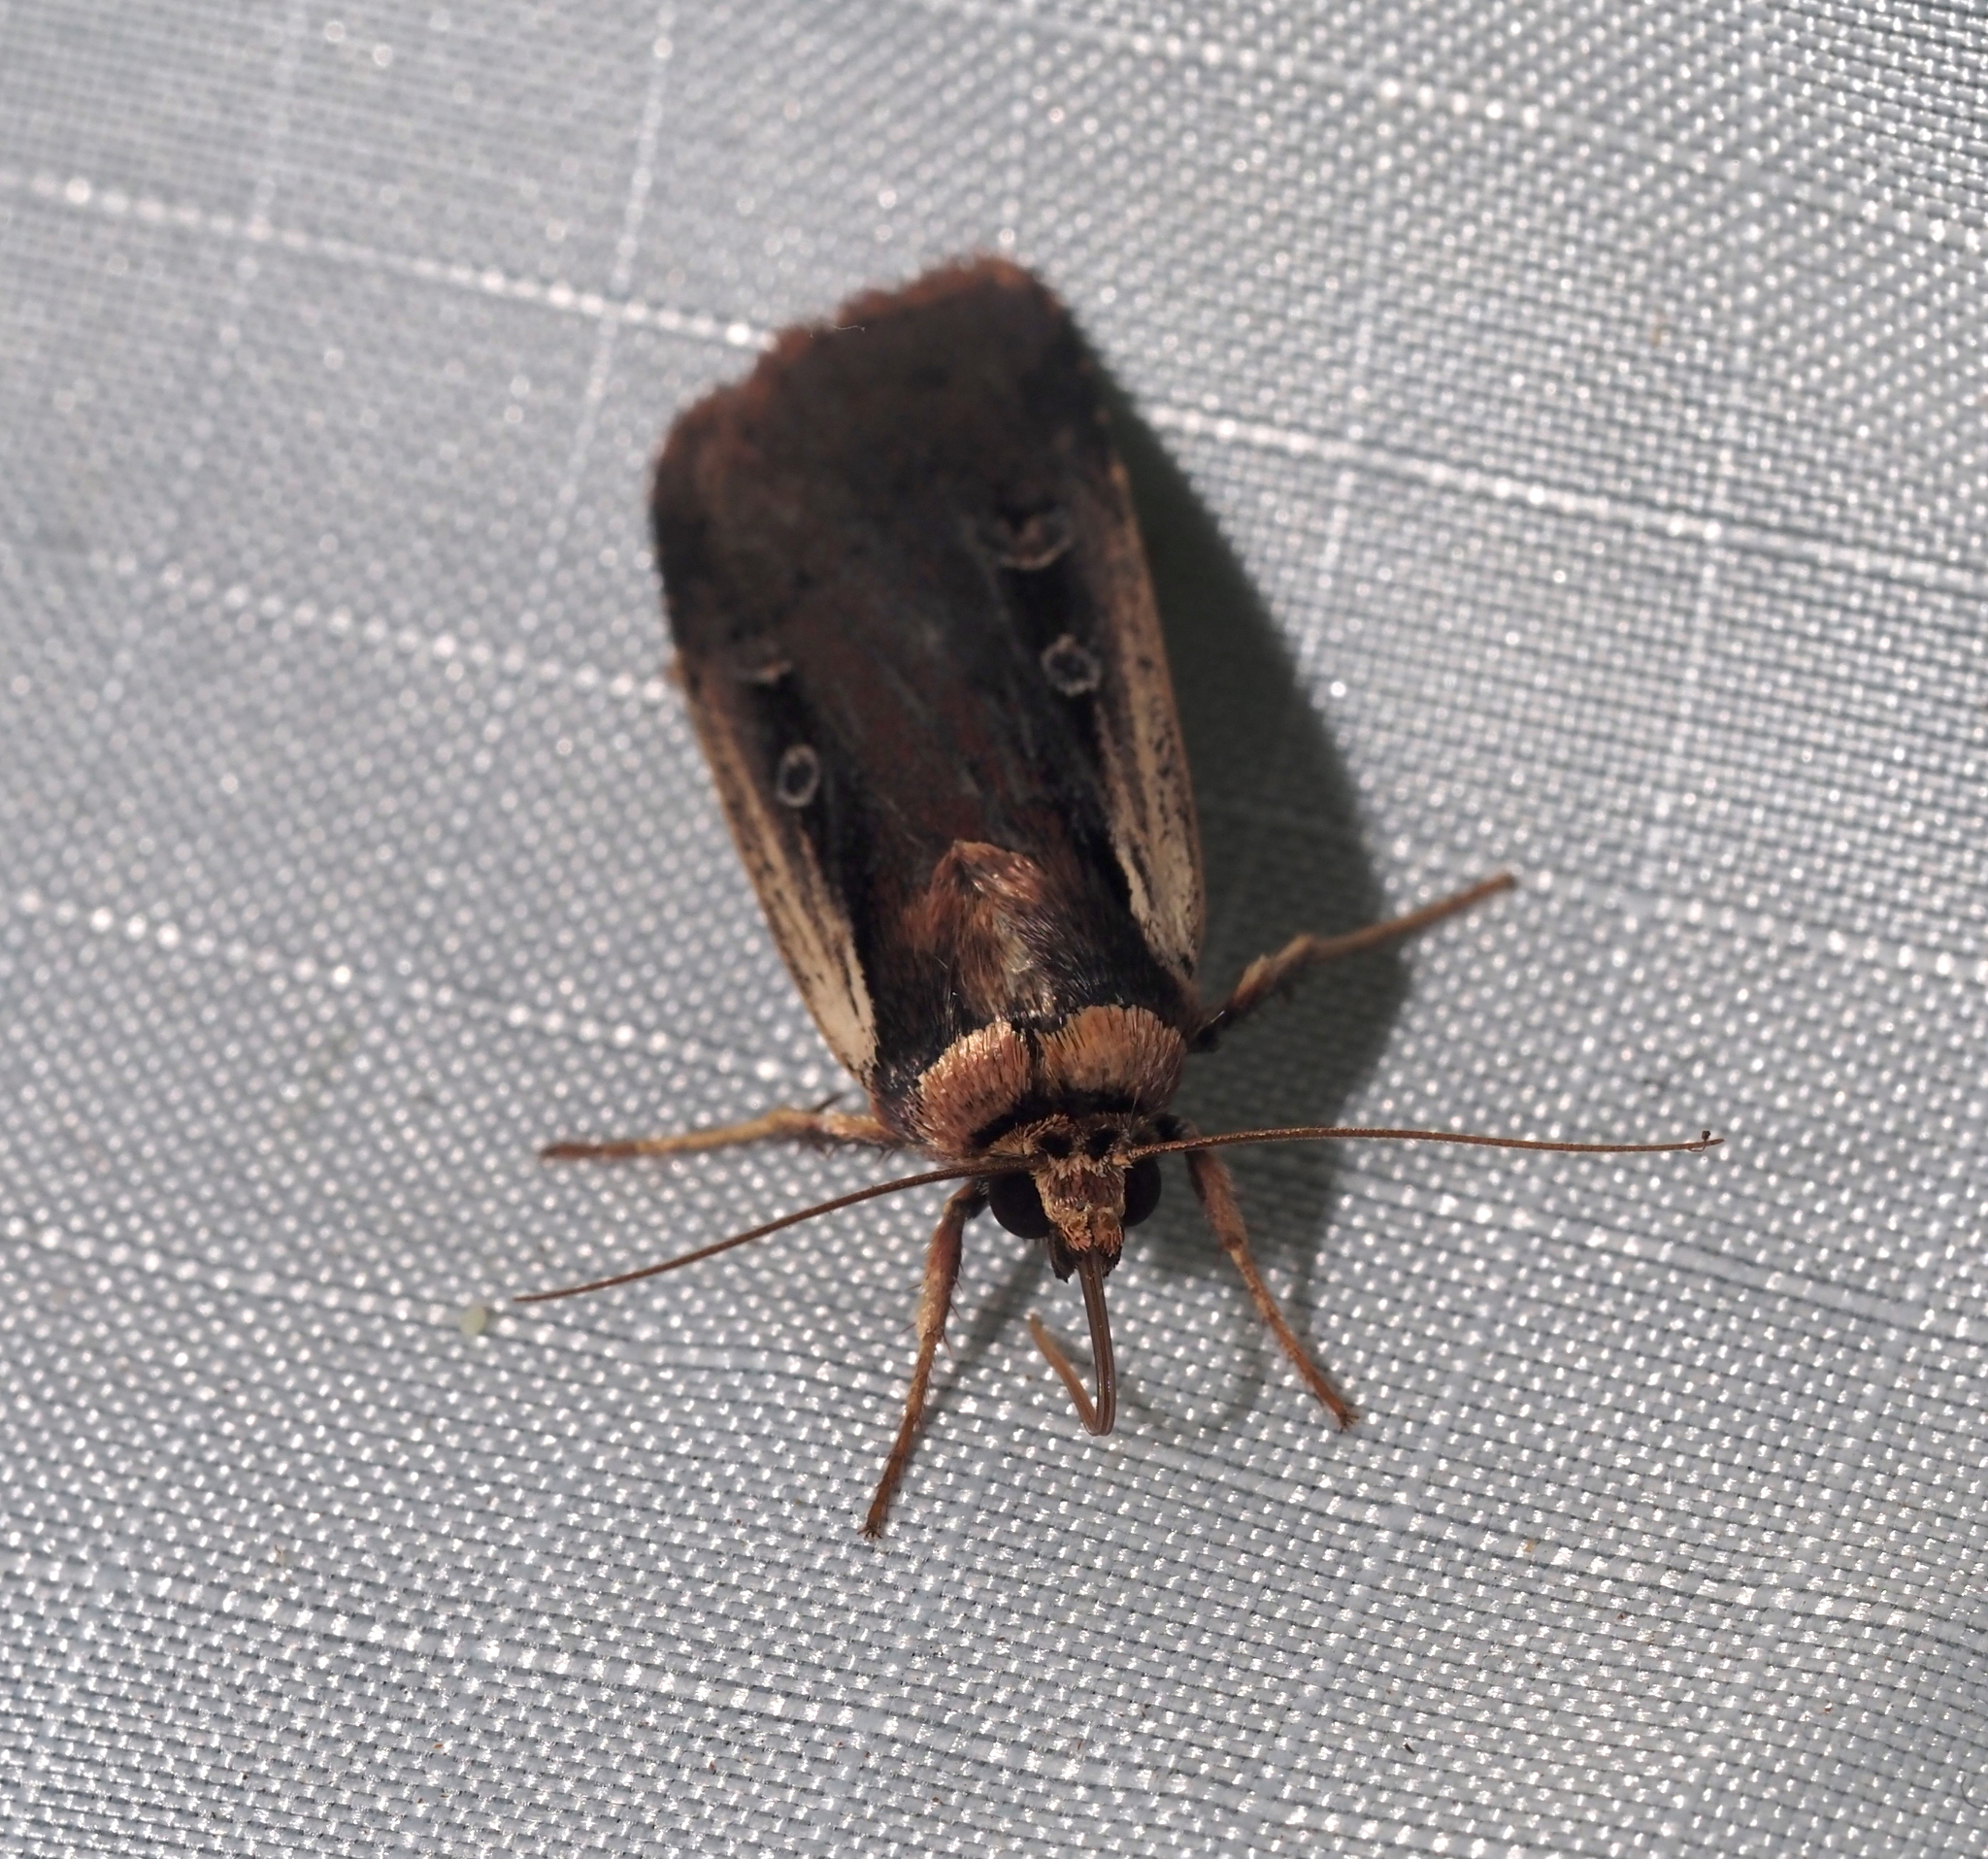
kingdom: Animalia
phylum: Arthropoda
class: Insecta
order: Lepidoptera
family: Noctuidae
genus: Ochropleura
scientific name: Ochropleura implecta
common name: Flame-shouldered dart
